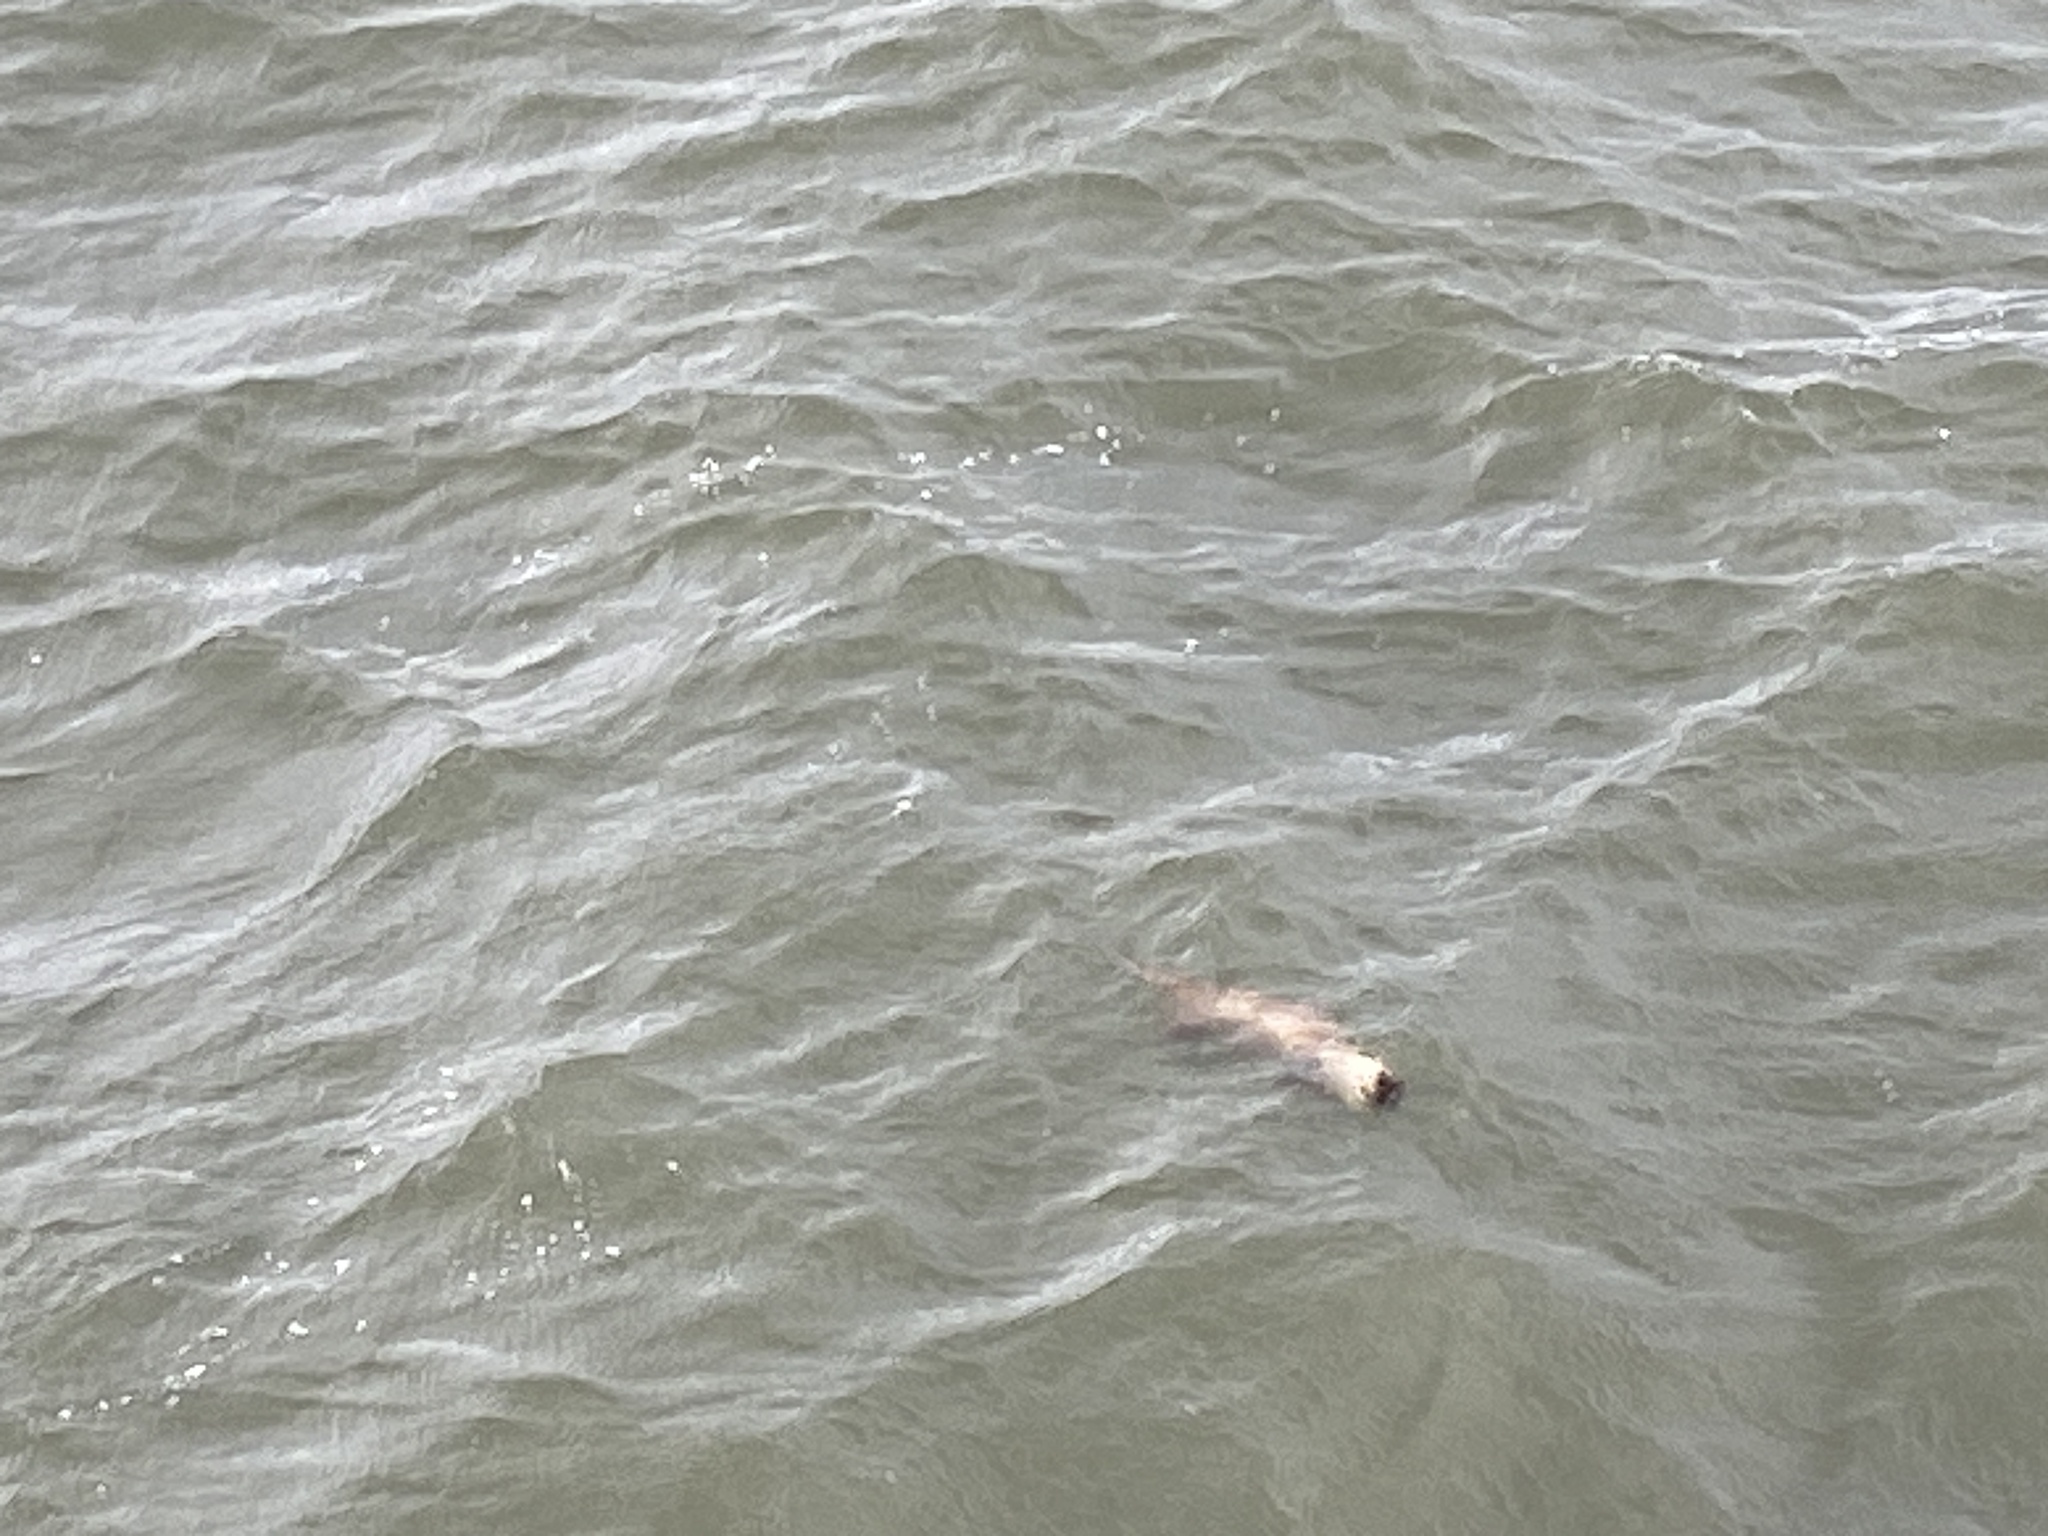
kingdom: Animalia
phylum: Chordata
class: Mammalia
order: Carnivora
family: Mustelidae
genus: Lutra
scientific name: Lutra lutra
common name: European otter
